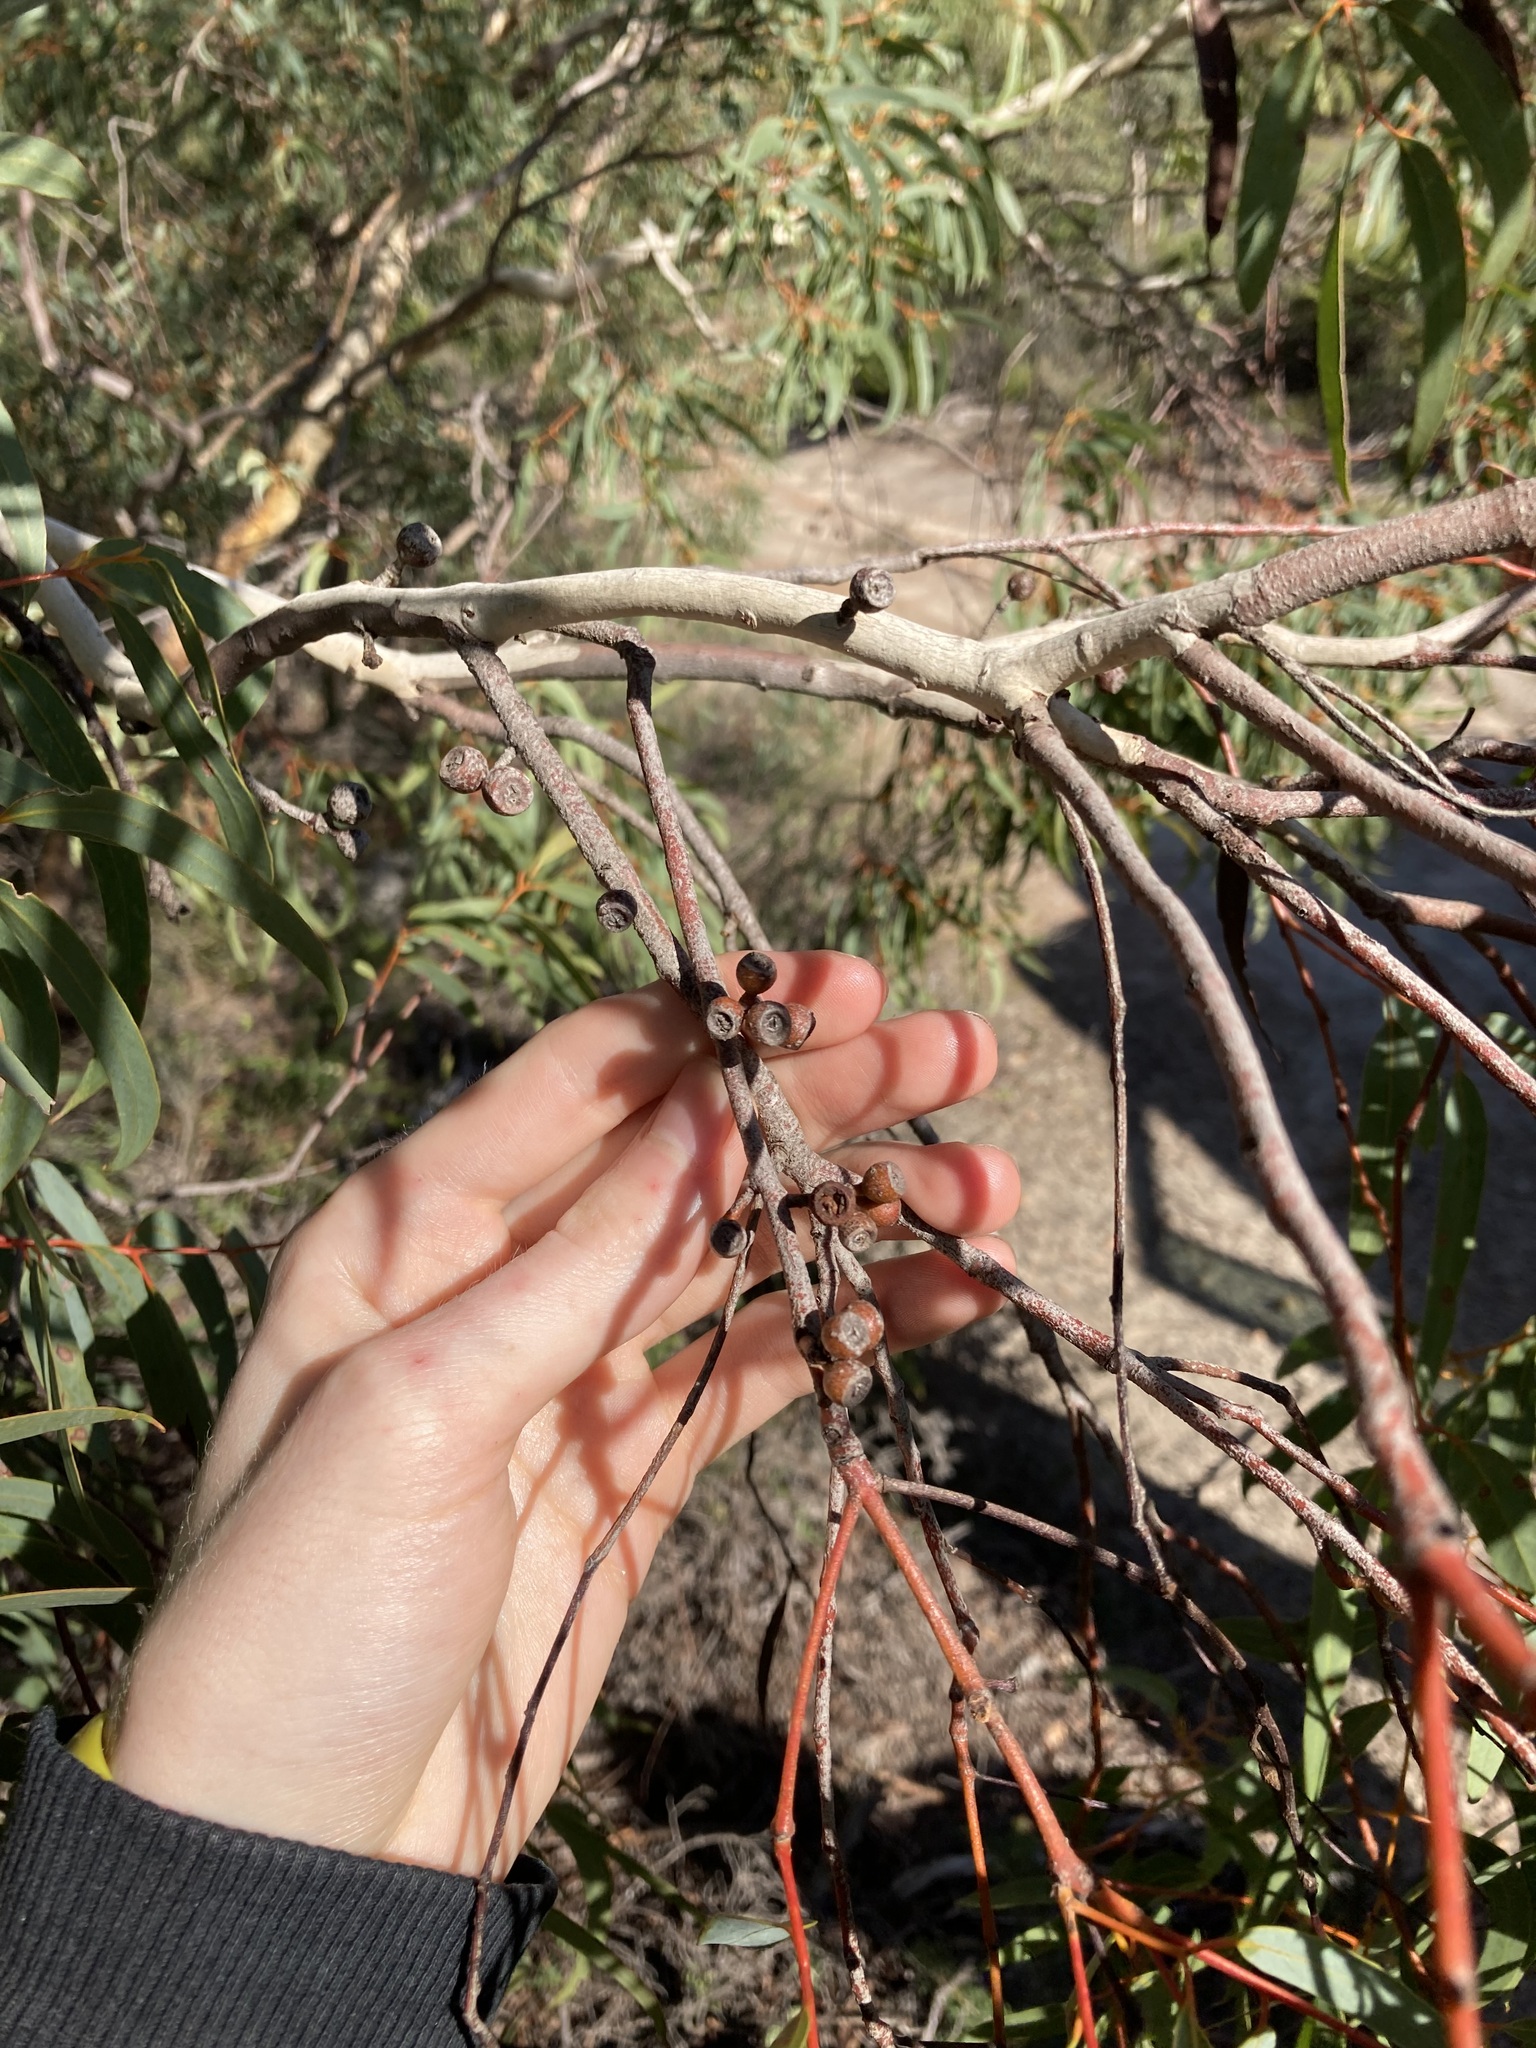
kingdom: Plantae
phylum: Tracheophyta
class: Magnoliopsida
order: Myrtales
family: Myrtaceae
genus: Eucalyptus
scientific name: Eucalyptus suberea
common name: Cork mallee
